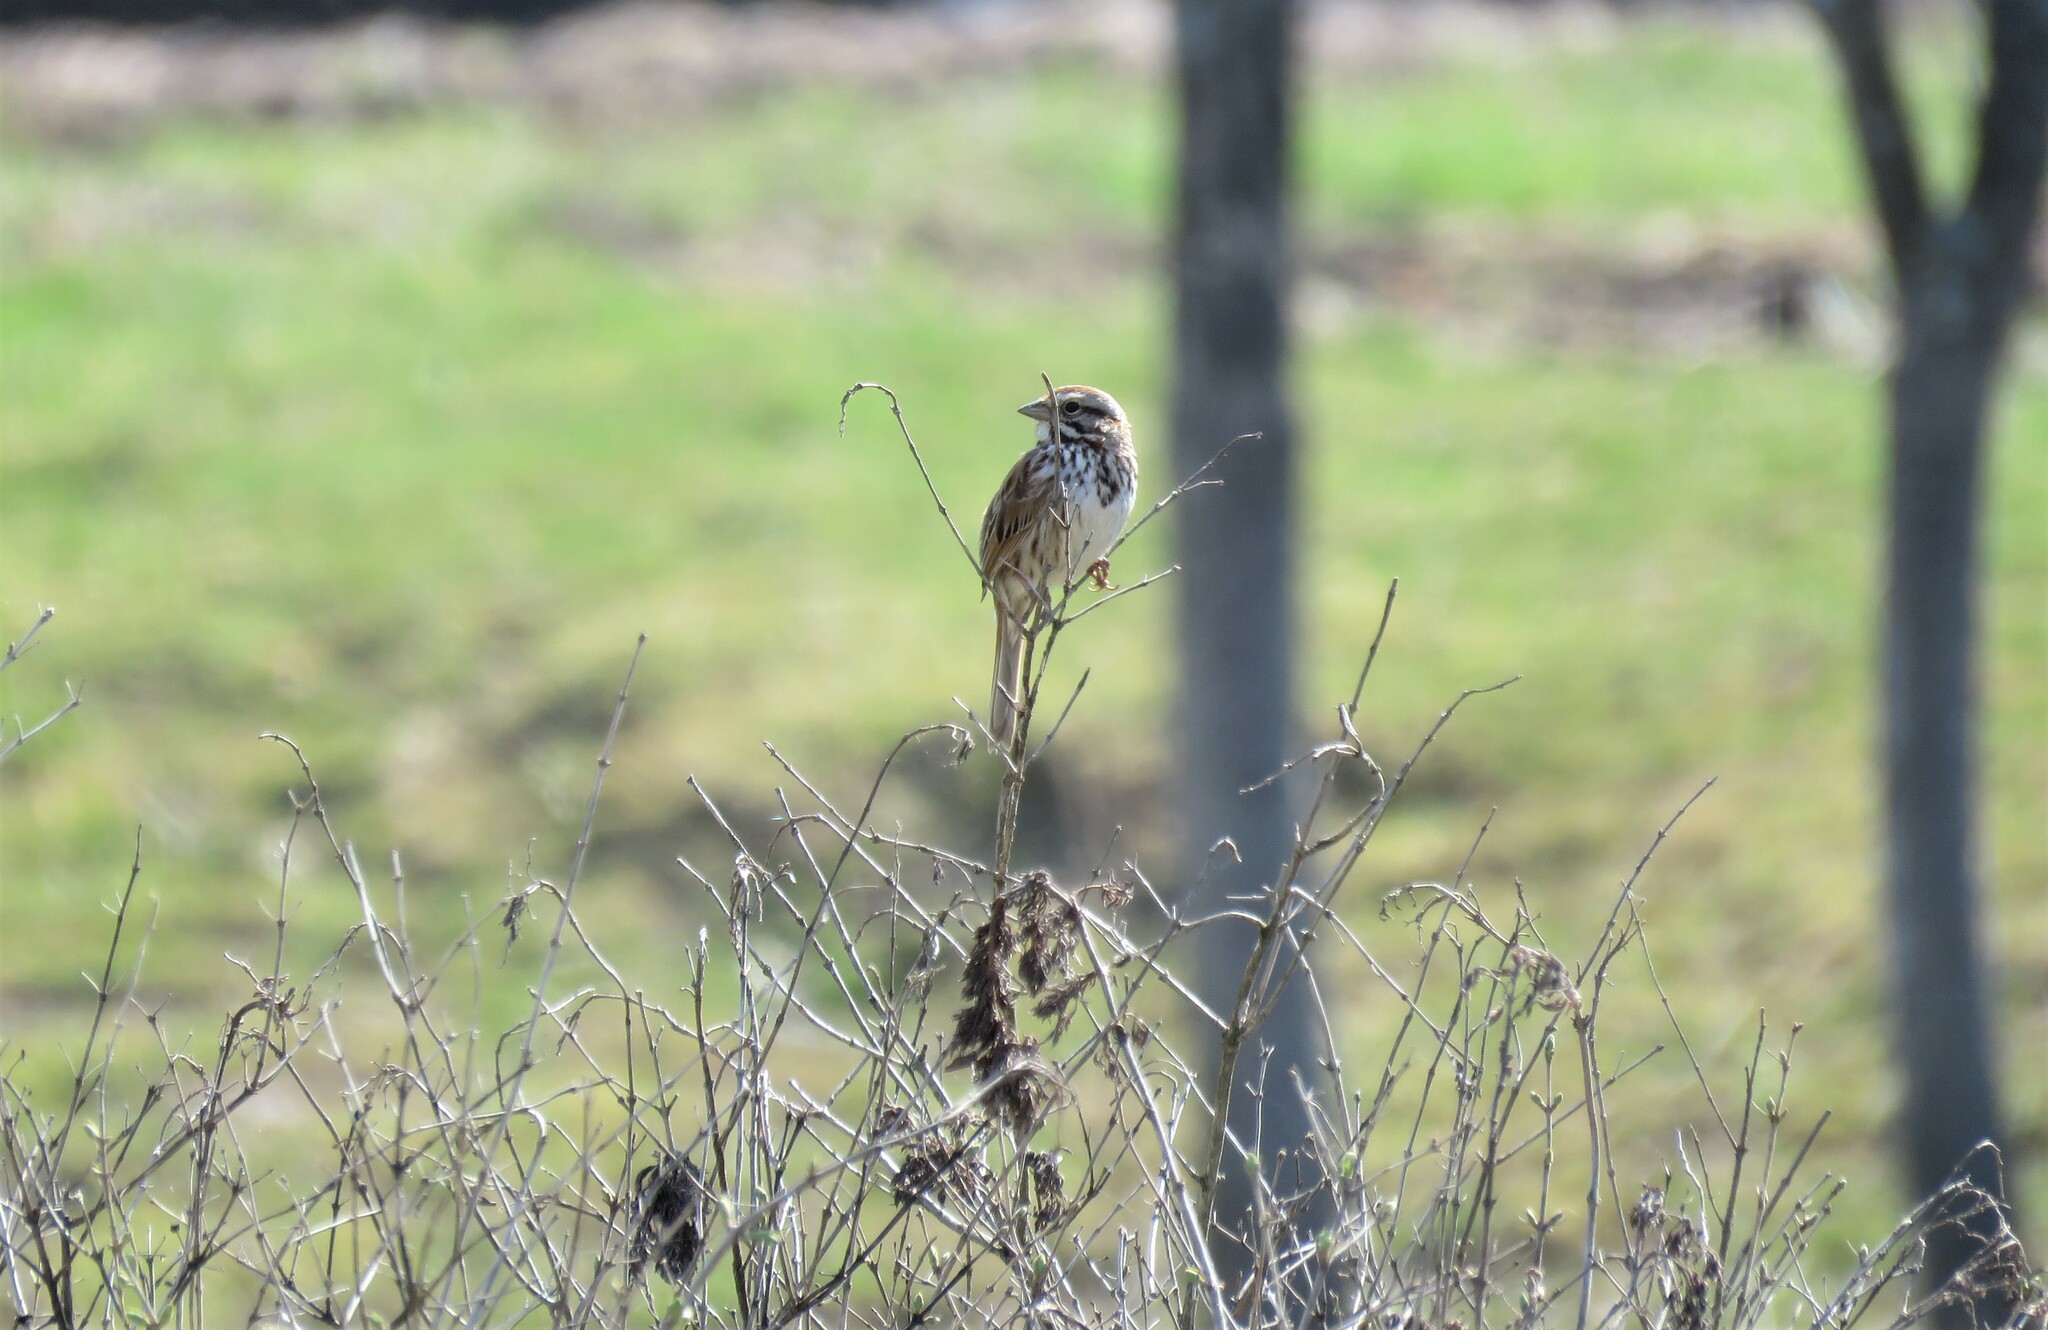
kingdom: Animalia
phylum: Chordata
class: Aves
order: Passeriformes
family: Passerellidae
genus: Melospiza
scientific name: Melospiza melodia
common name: Song sparrow
